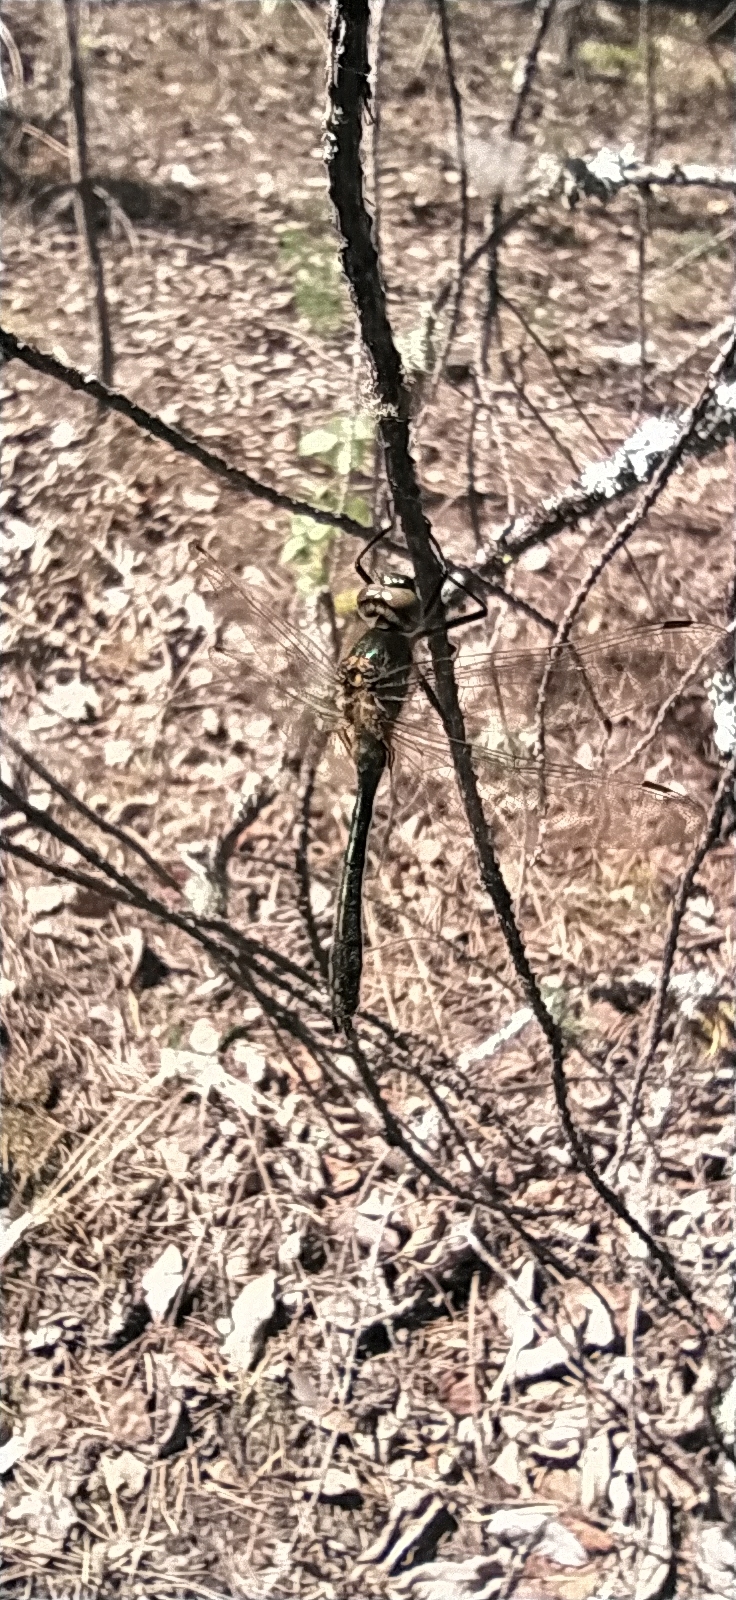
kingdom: Animalia
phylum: Arthropoda
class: Insecta
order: Odonata
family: Corduliidae
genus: Cordulia
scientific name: Cordulia aenea
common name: Downy emerald
